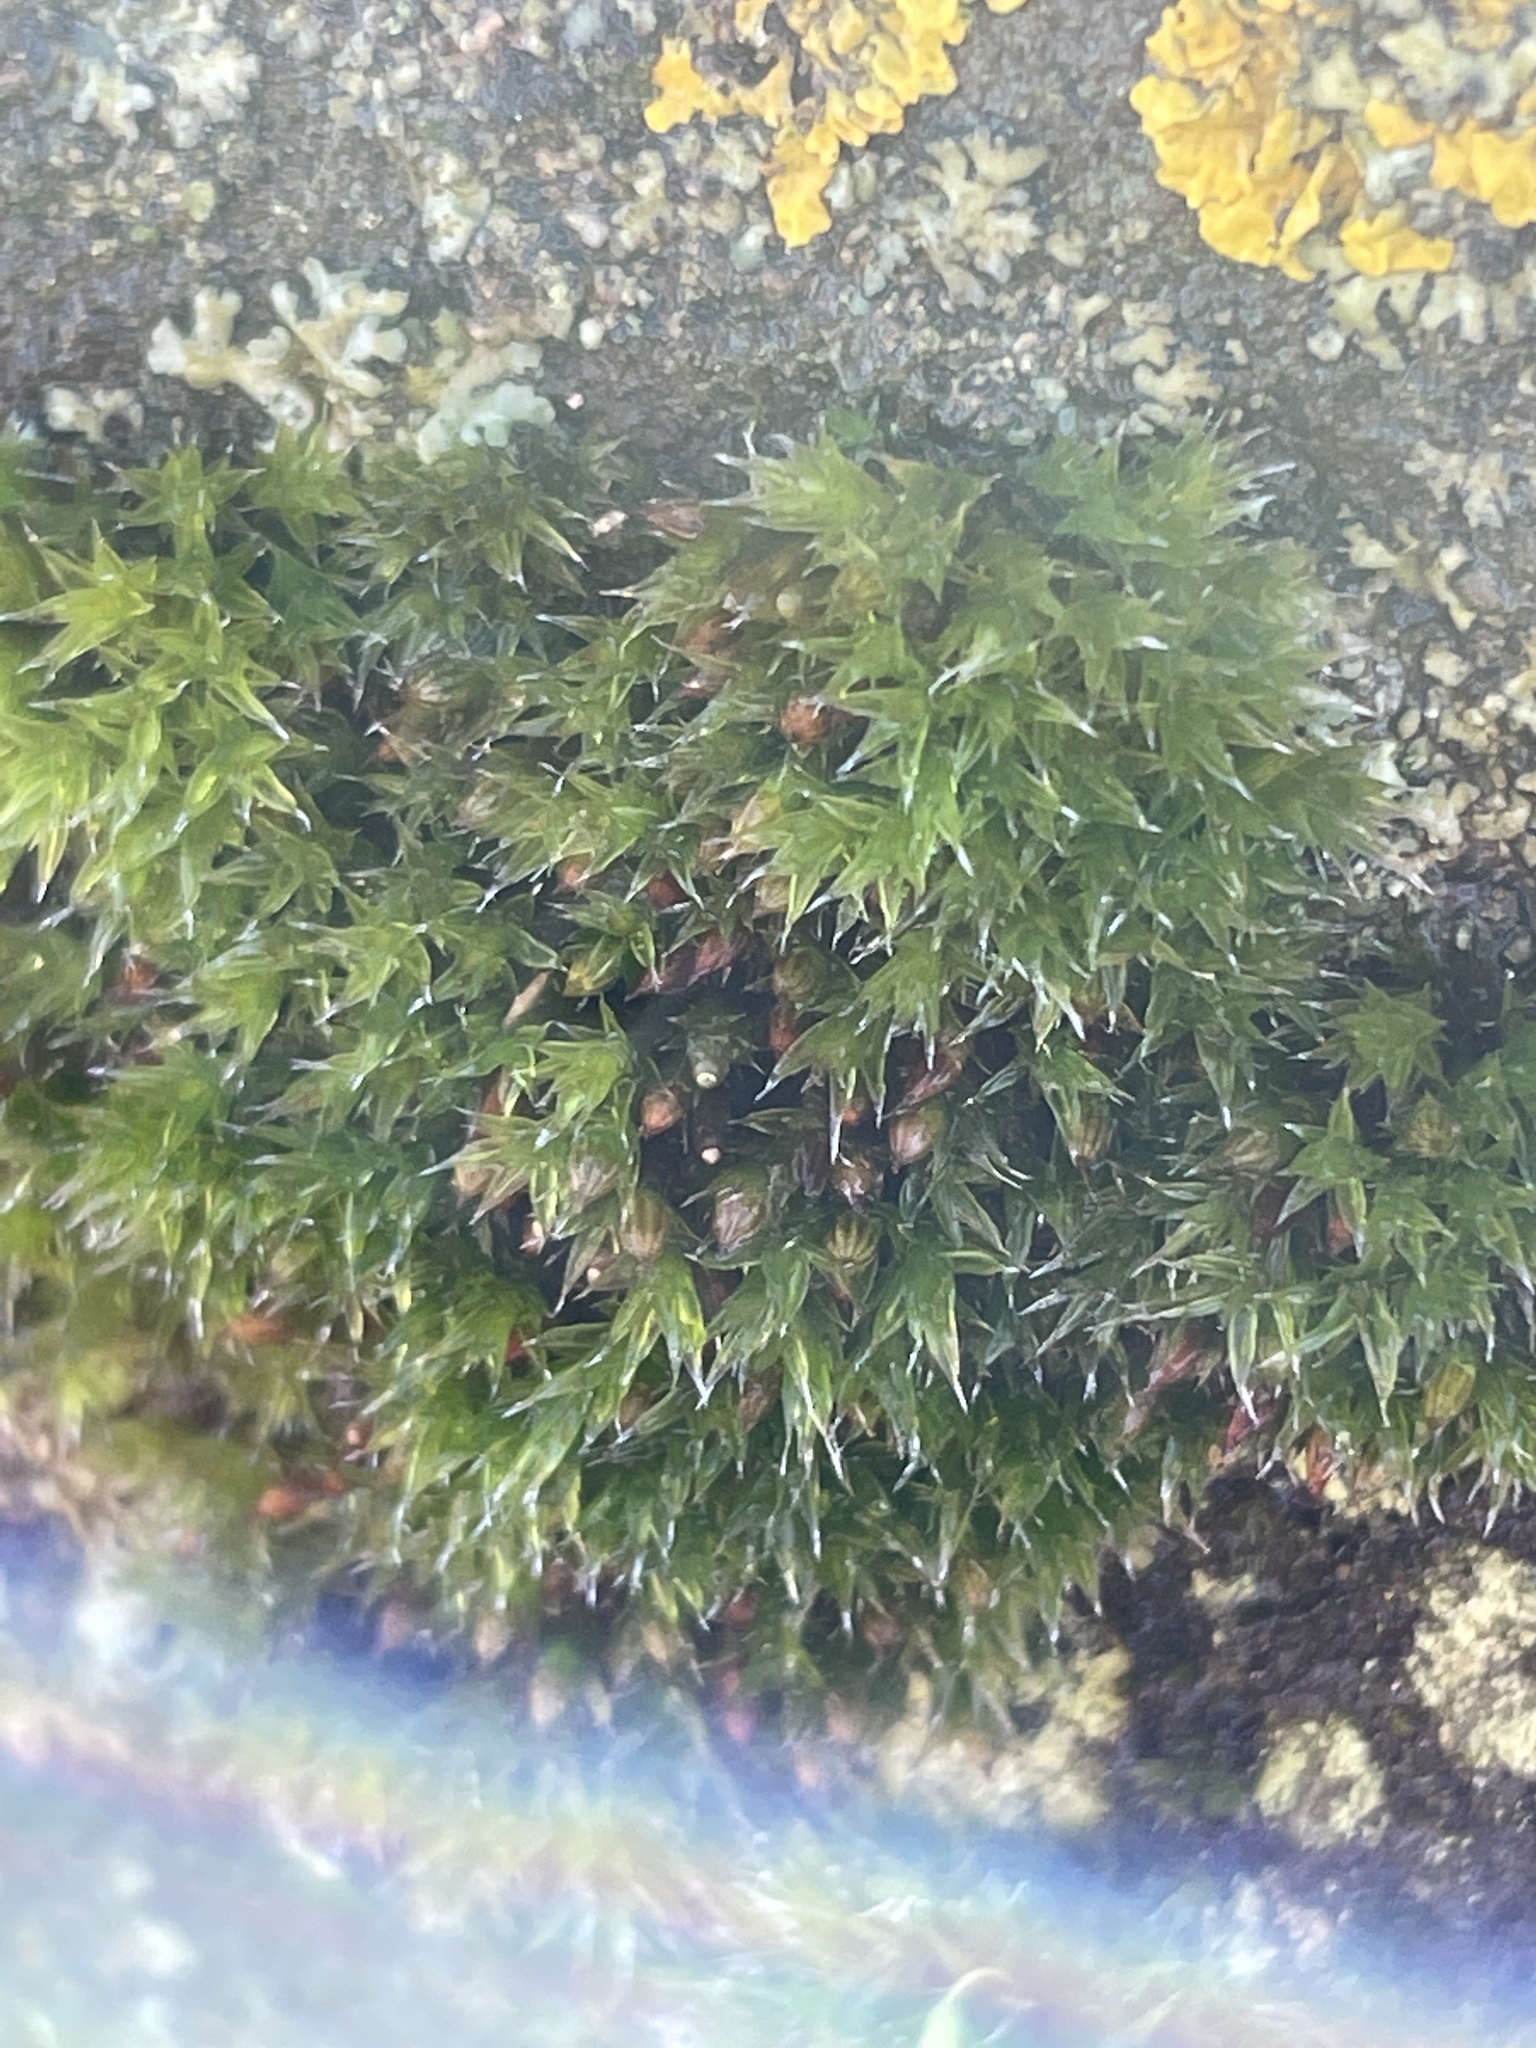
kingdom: Plantae
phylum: Bryophyta
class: Bryopsida
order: Orthotrichales
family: Orthotrichaceae
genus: Orthotrichum
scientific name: Orthotrichum diaphanum
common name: White-tipped bristle-moss
